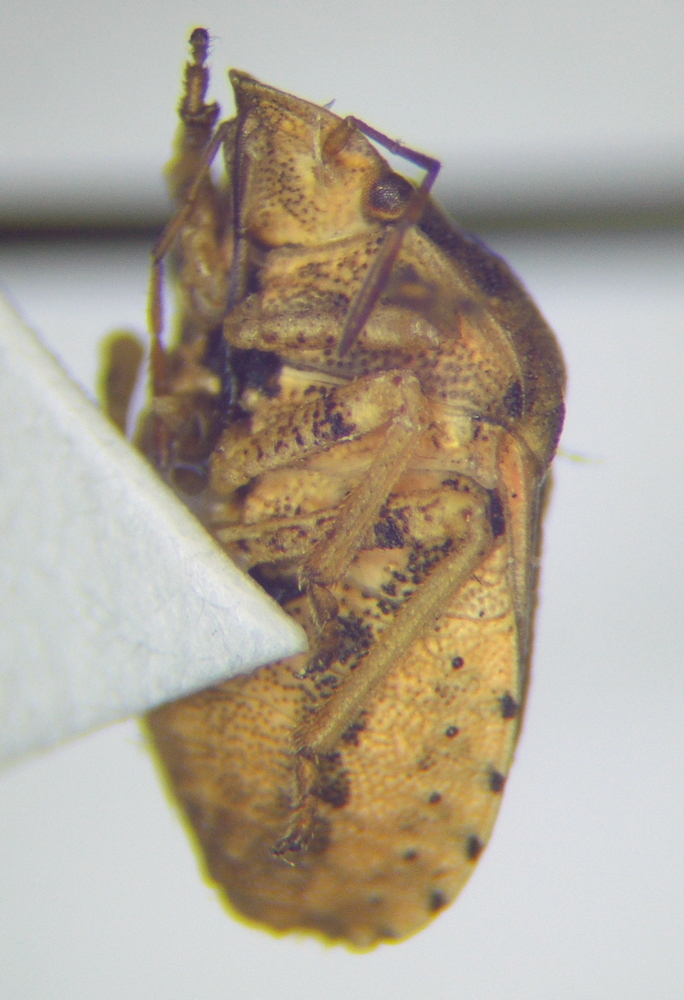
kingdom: Animalia
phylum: Arthropoda
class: Insecta
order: Hemiptera
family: Pentatomidae
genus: Derula
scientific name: Derula flavoguttata
